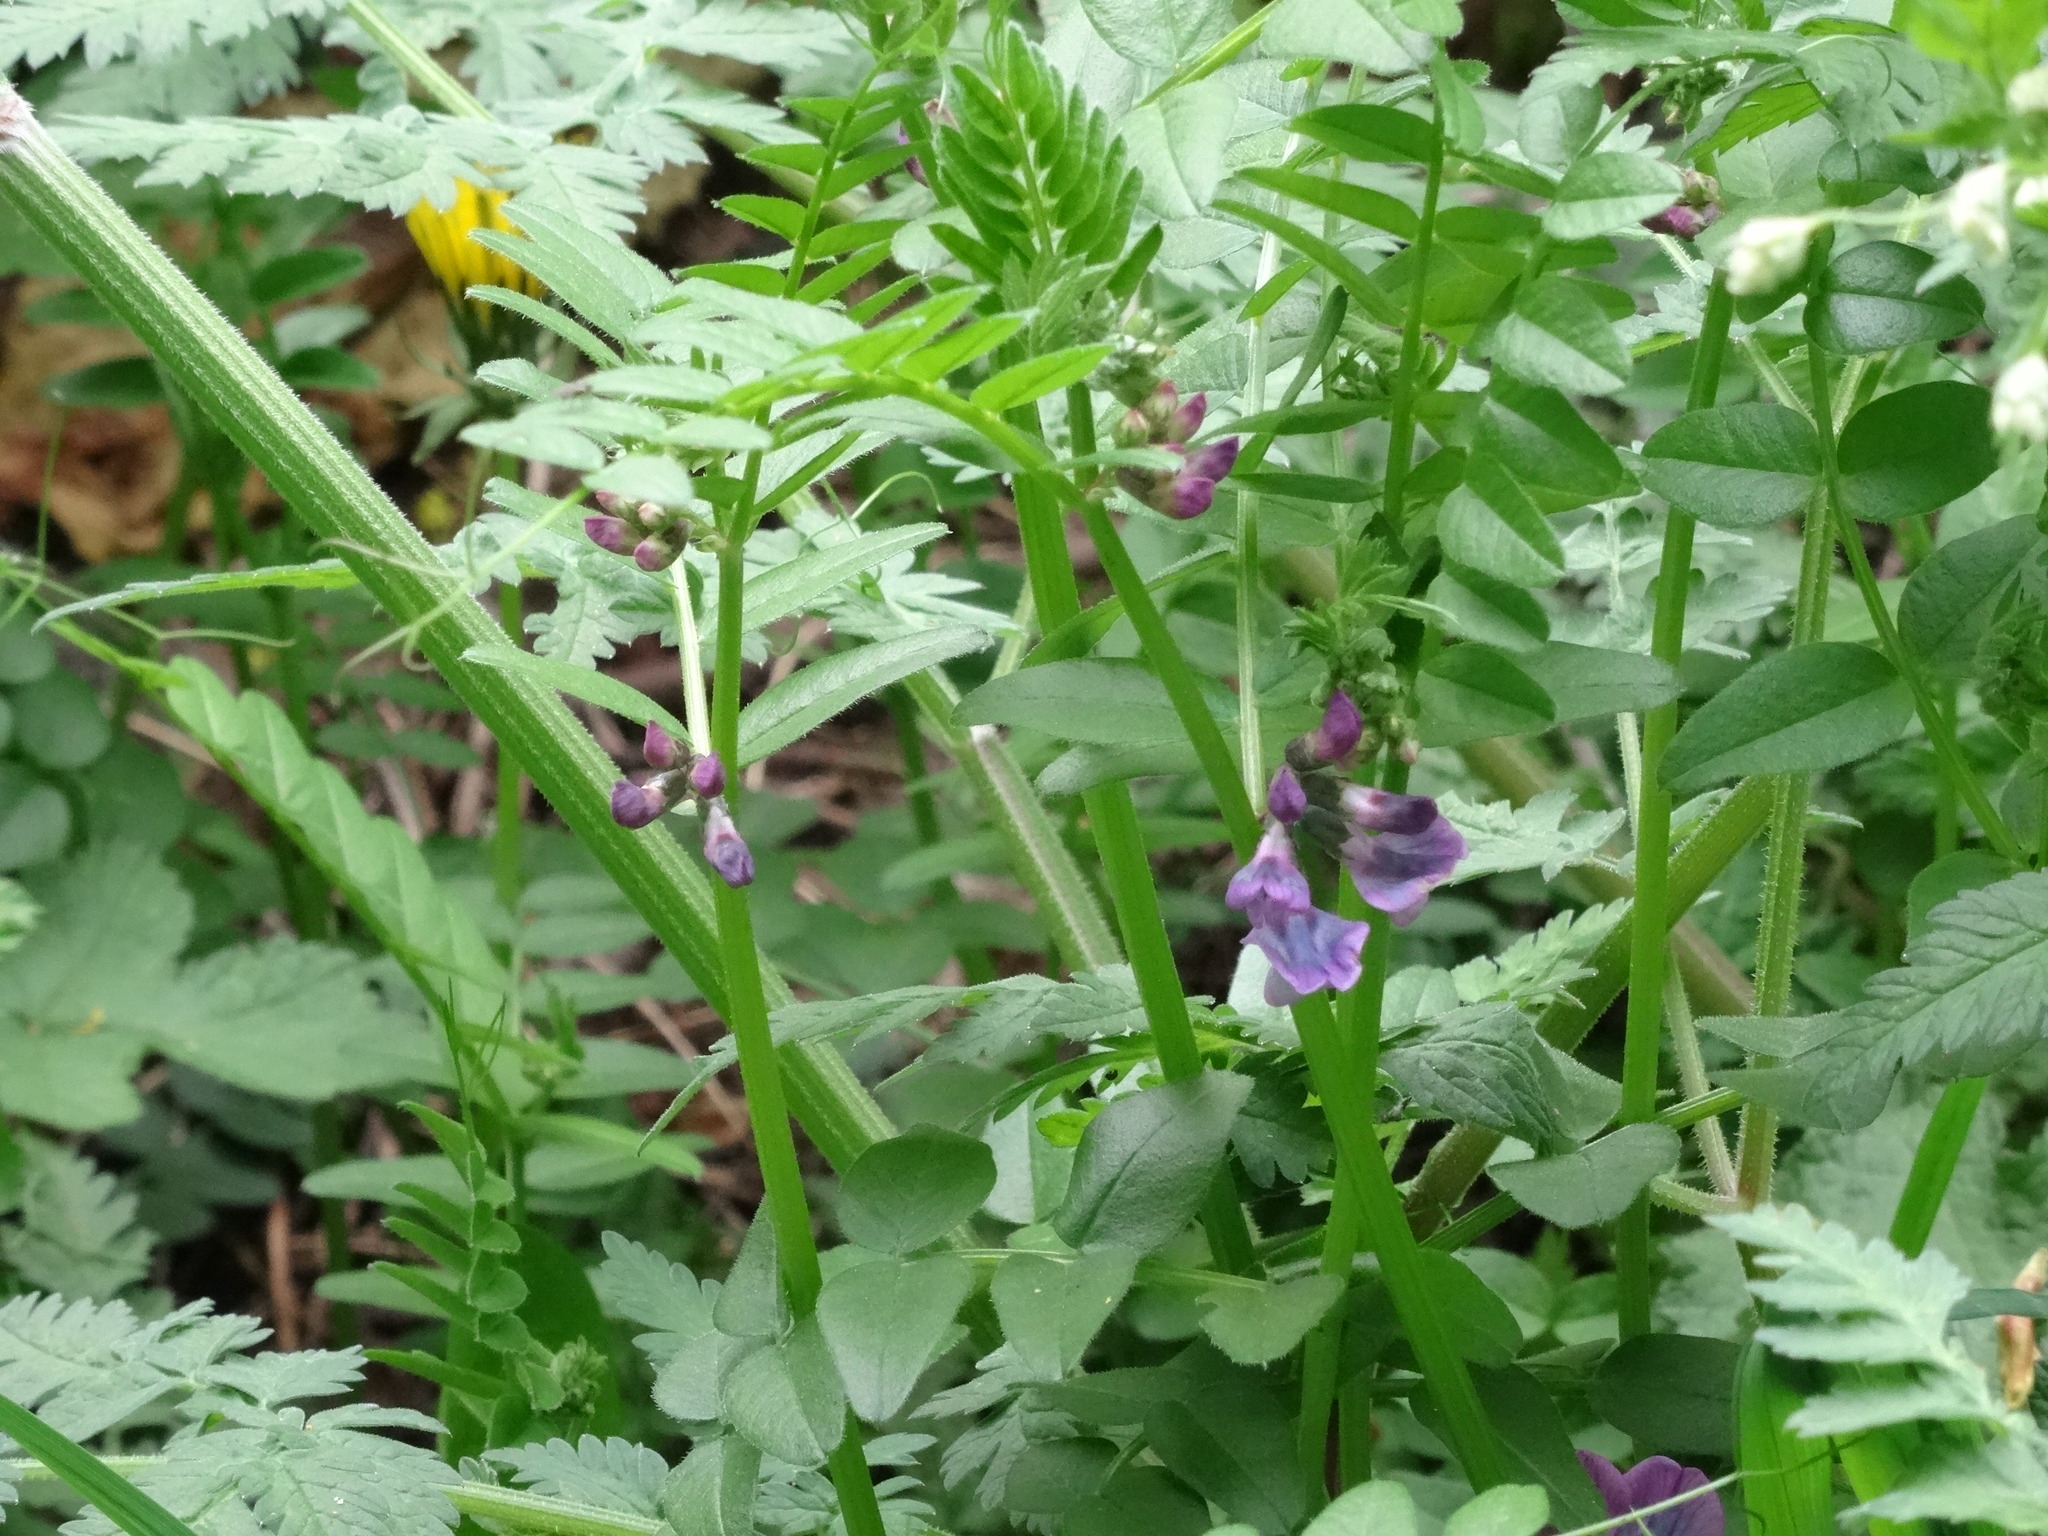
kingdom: Plantae
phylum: Tracheophyta
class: Magnoliopsida
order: Fabales
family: Fabaceae
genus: Vicia
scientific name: Vicia sepium
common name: Bush vetch
